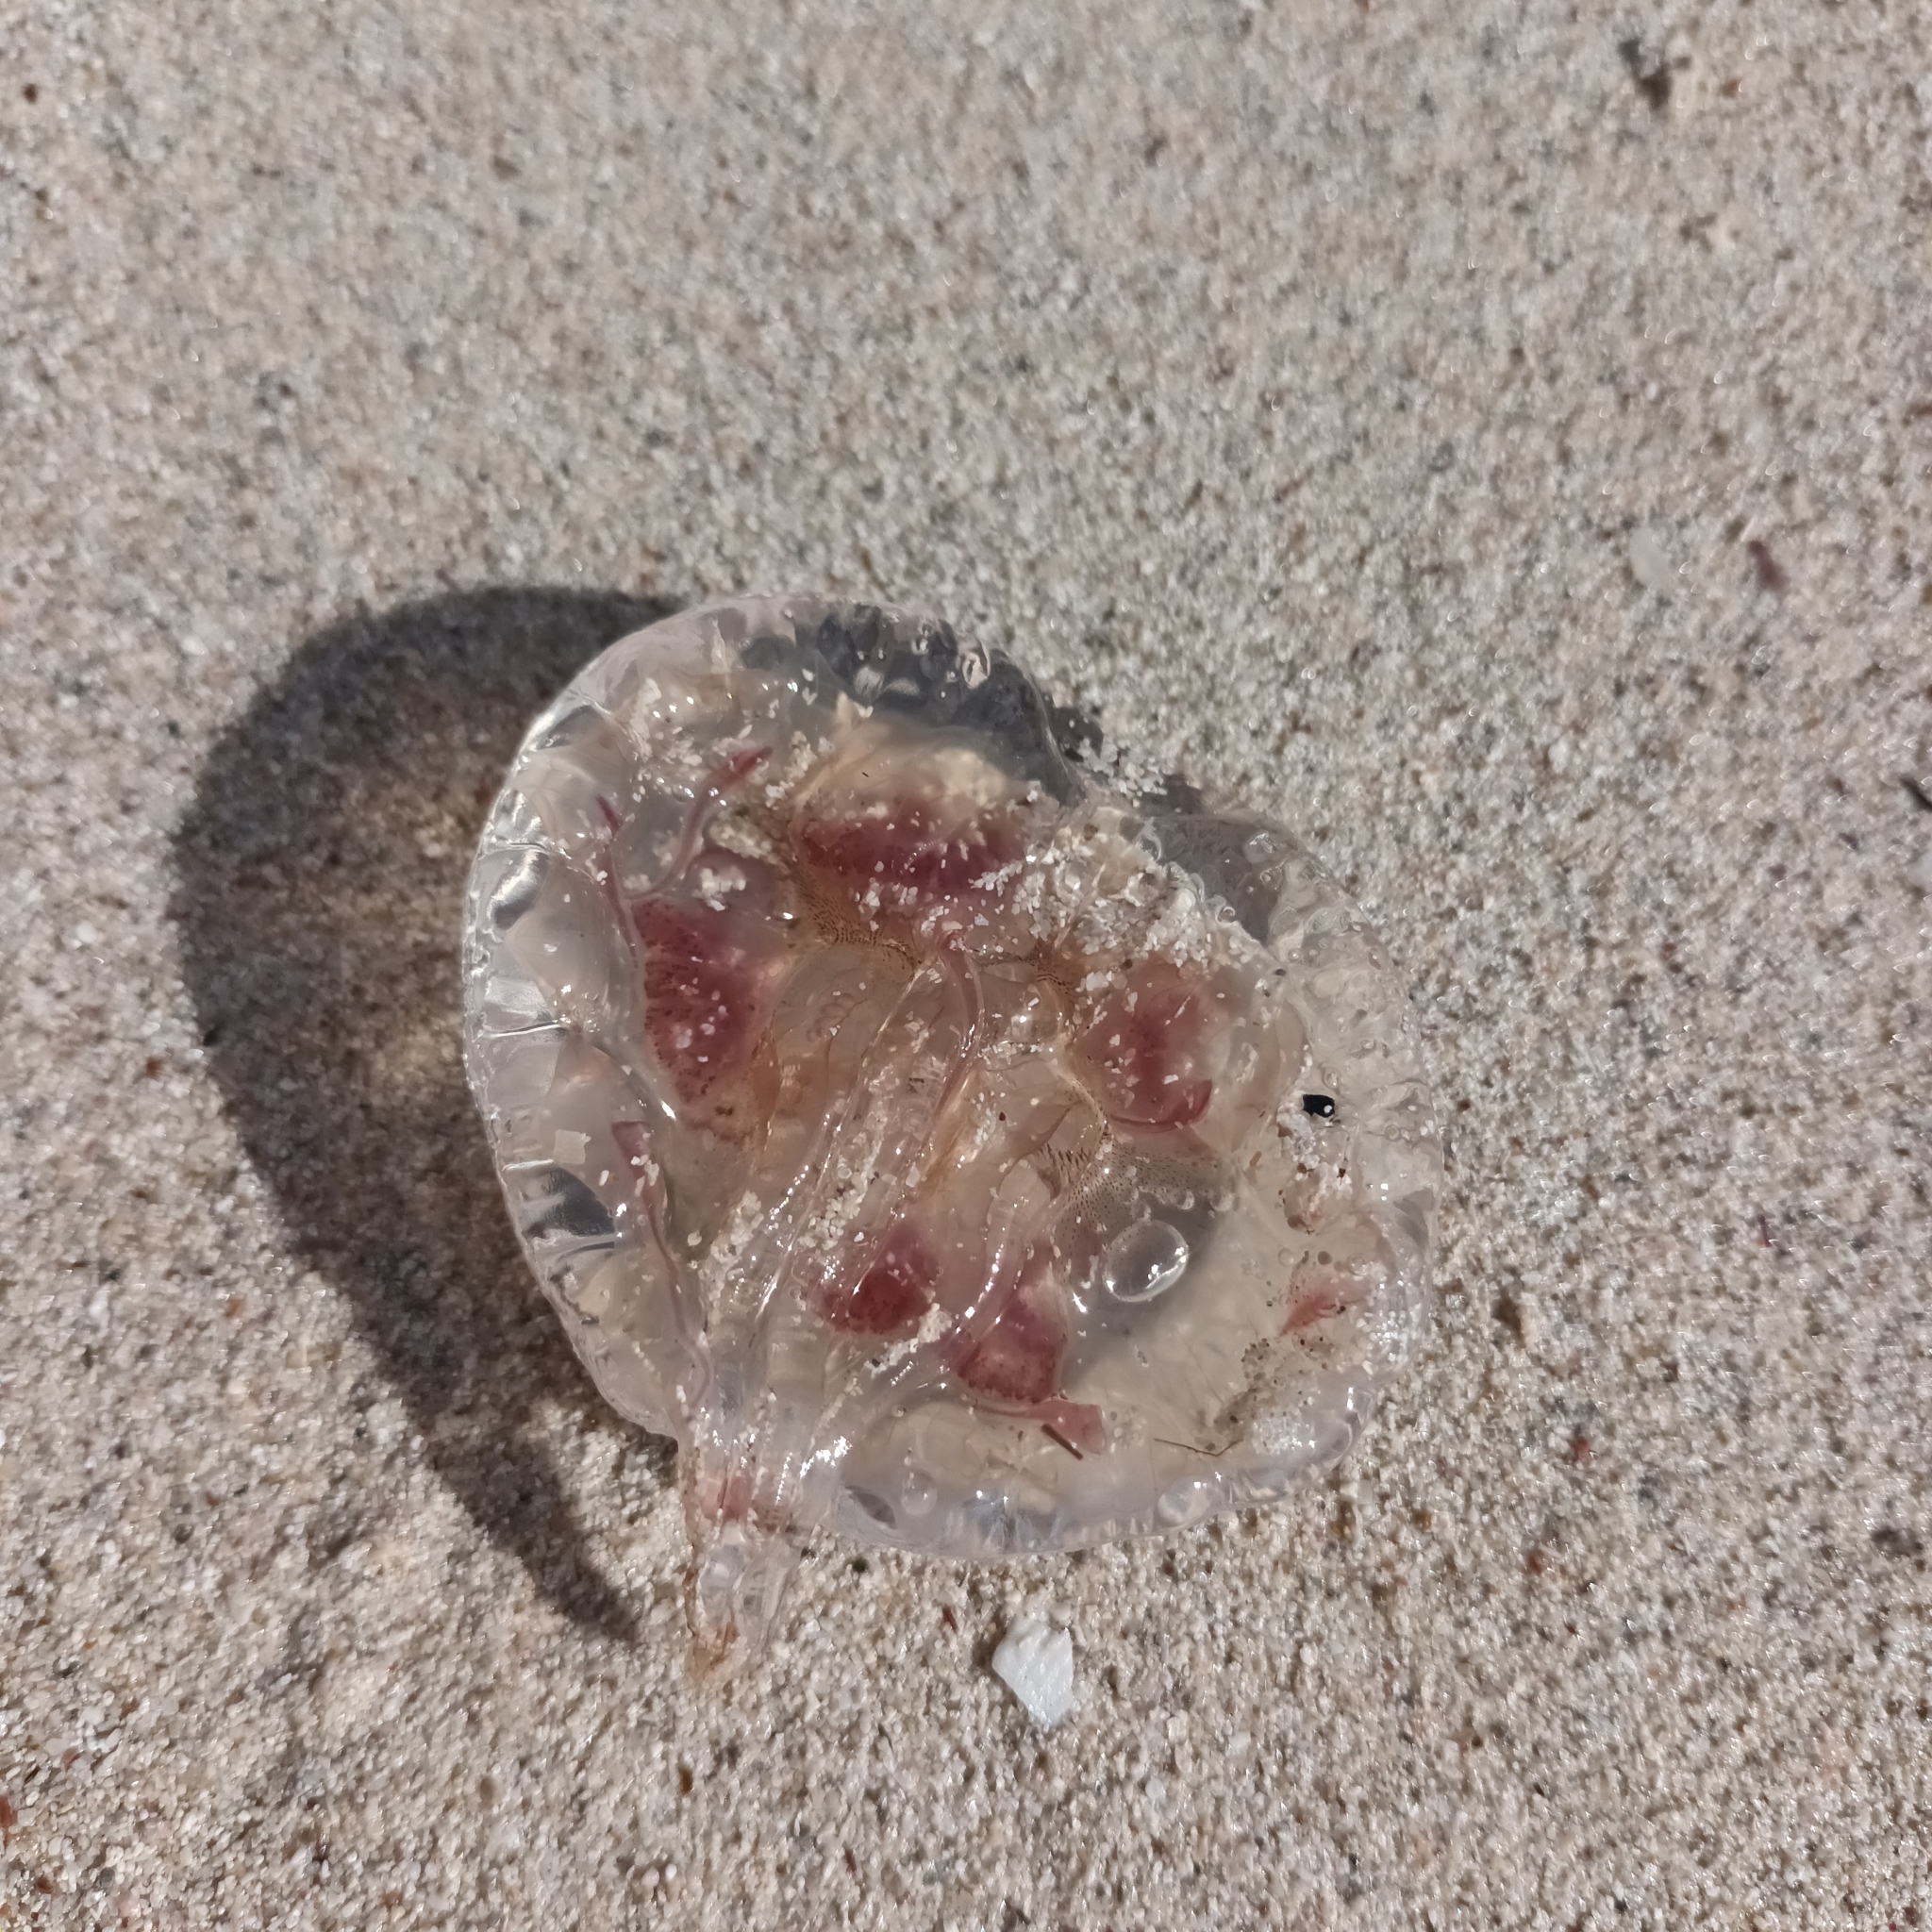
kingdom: Animalia
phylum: Cnidaria
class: Scyphozoa
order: Semaeostomeae
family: Pelagiidae
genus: Pelagia
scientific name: Pelagia noctiluca
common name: Mauve stinger
